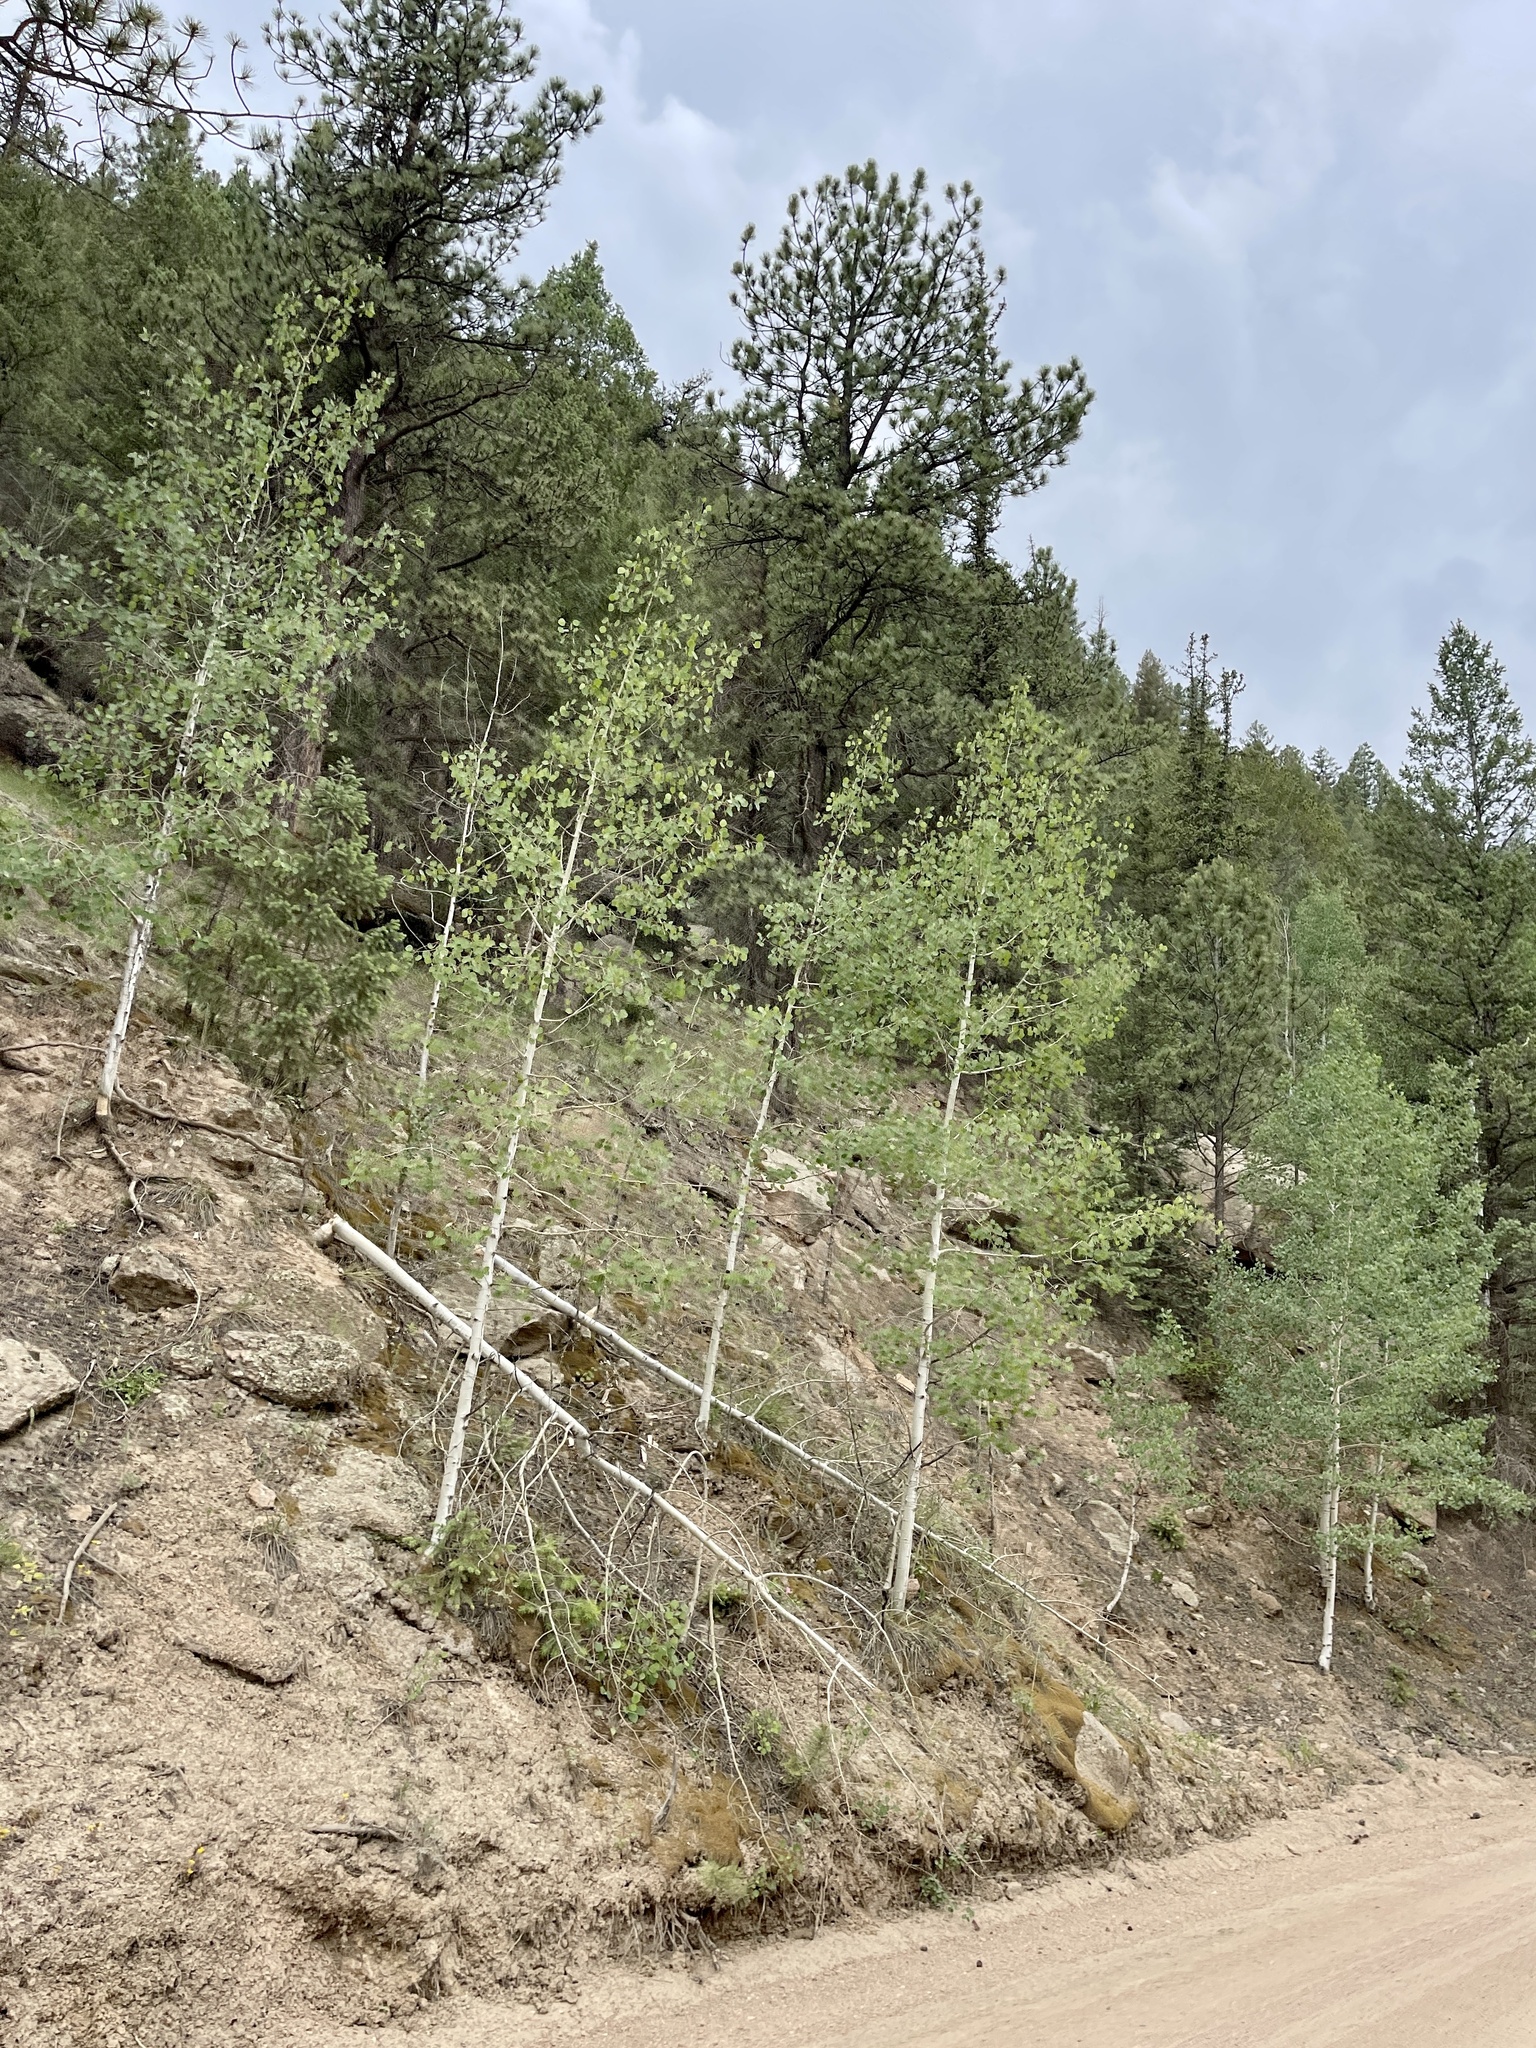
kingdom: Plantae
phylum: Tracheophyta
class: Magnoliopsida
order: Malpighiales
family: Salicaceae
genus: Populus
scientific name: Populus tremuloides
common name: Quaking aspen
